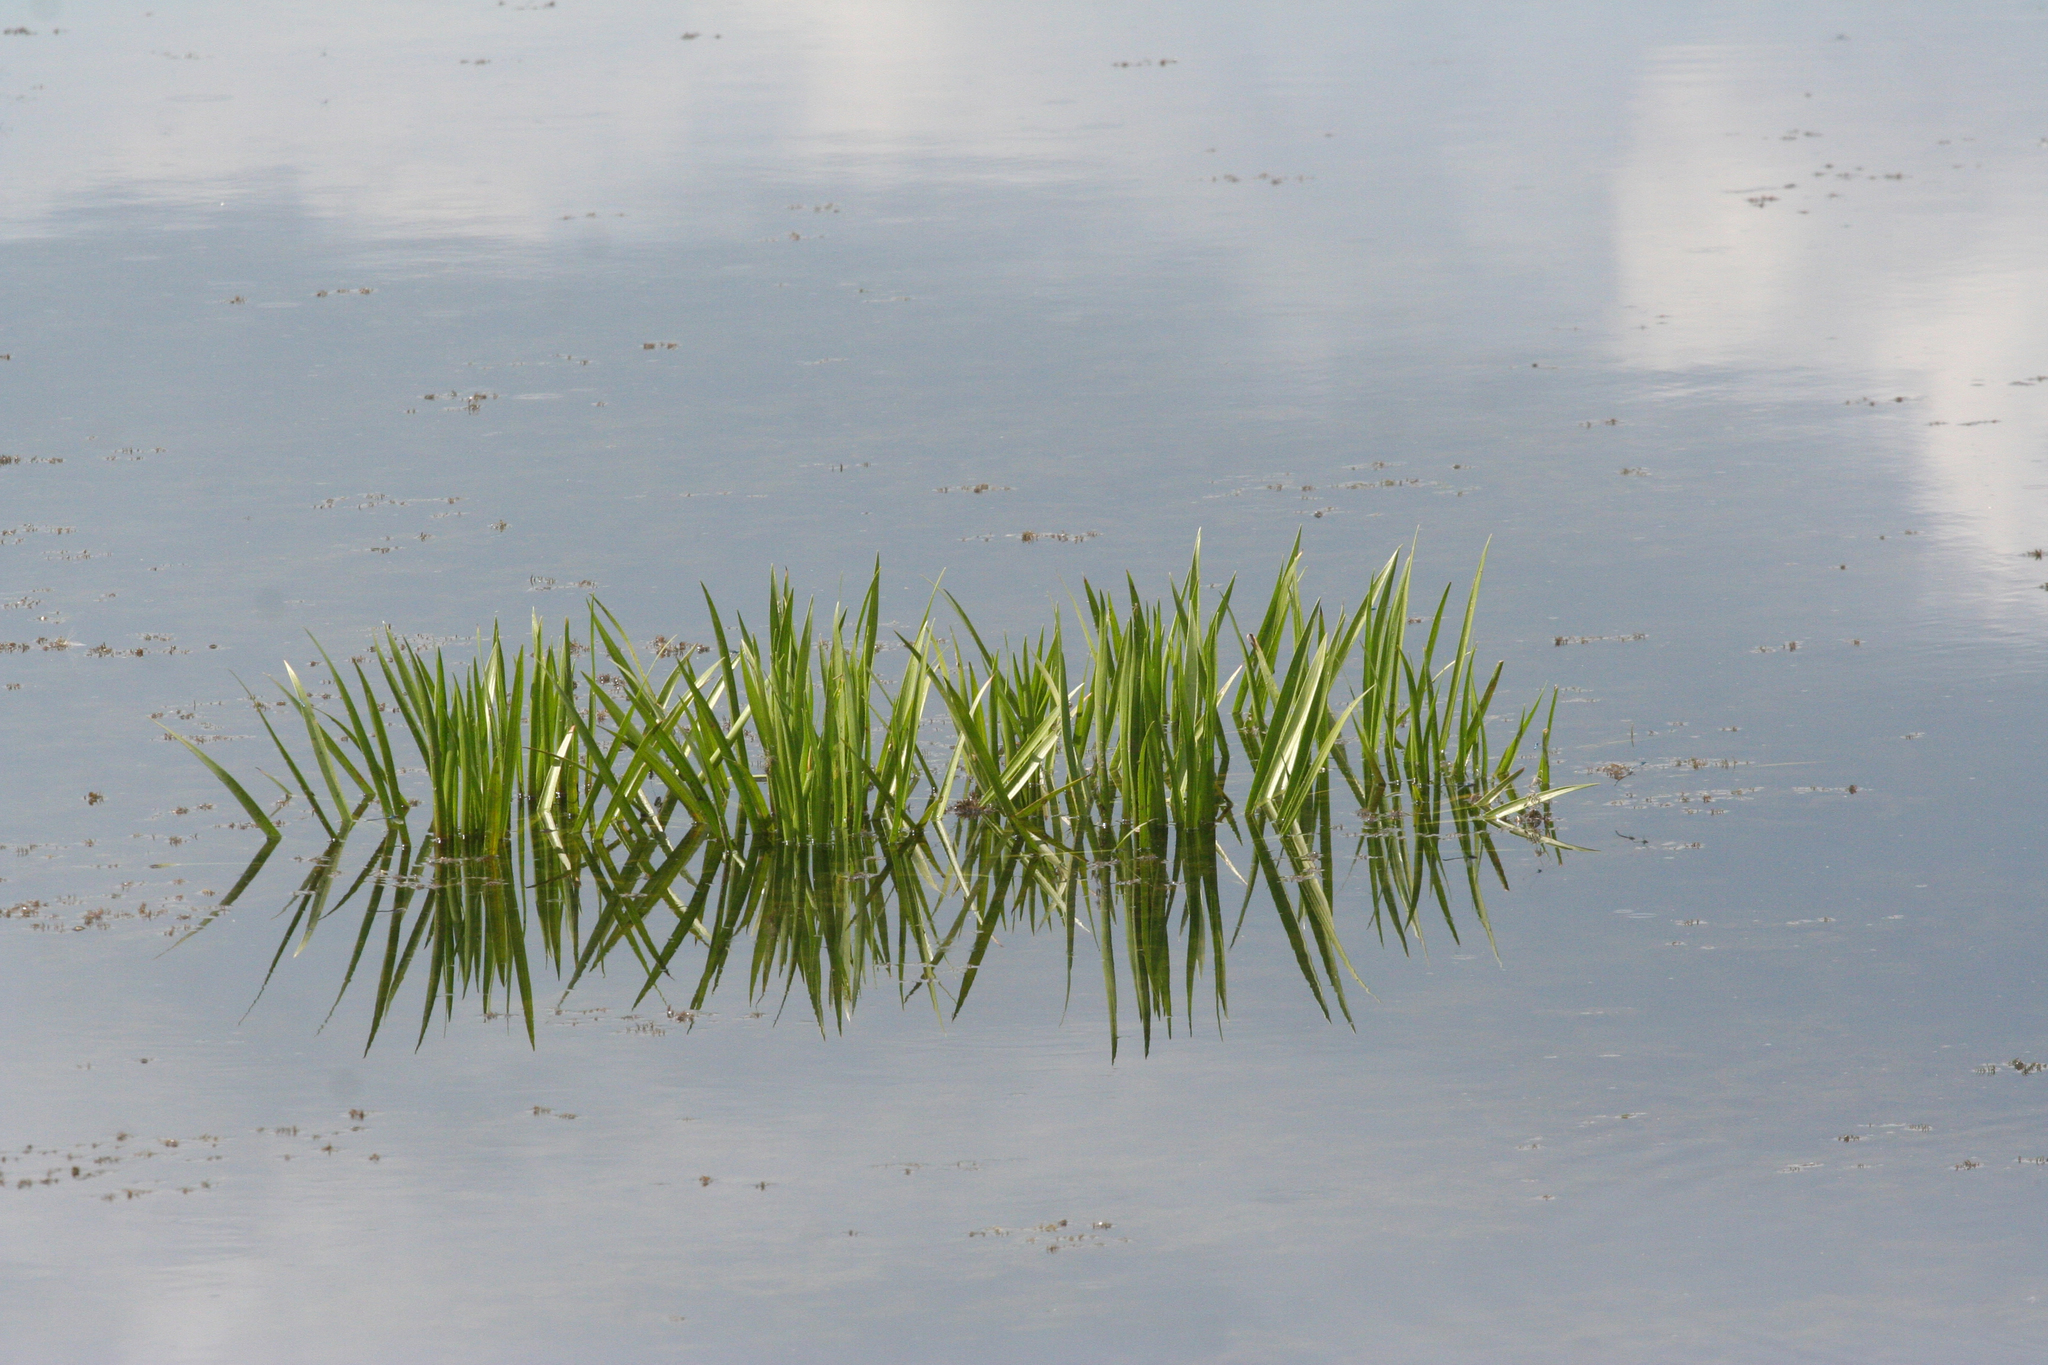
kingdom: Plantae
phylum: Tracheophyta
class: Liliopsida
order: Alismatales
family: Hydrocharitaceae
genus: Stratiotes
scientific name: Stratiotes aloides
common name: Water-soldier
